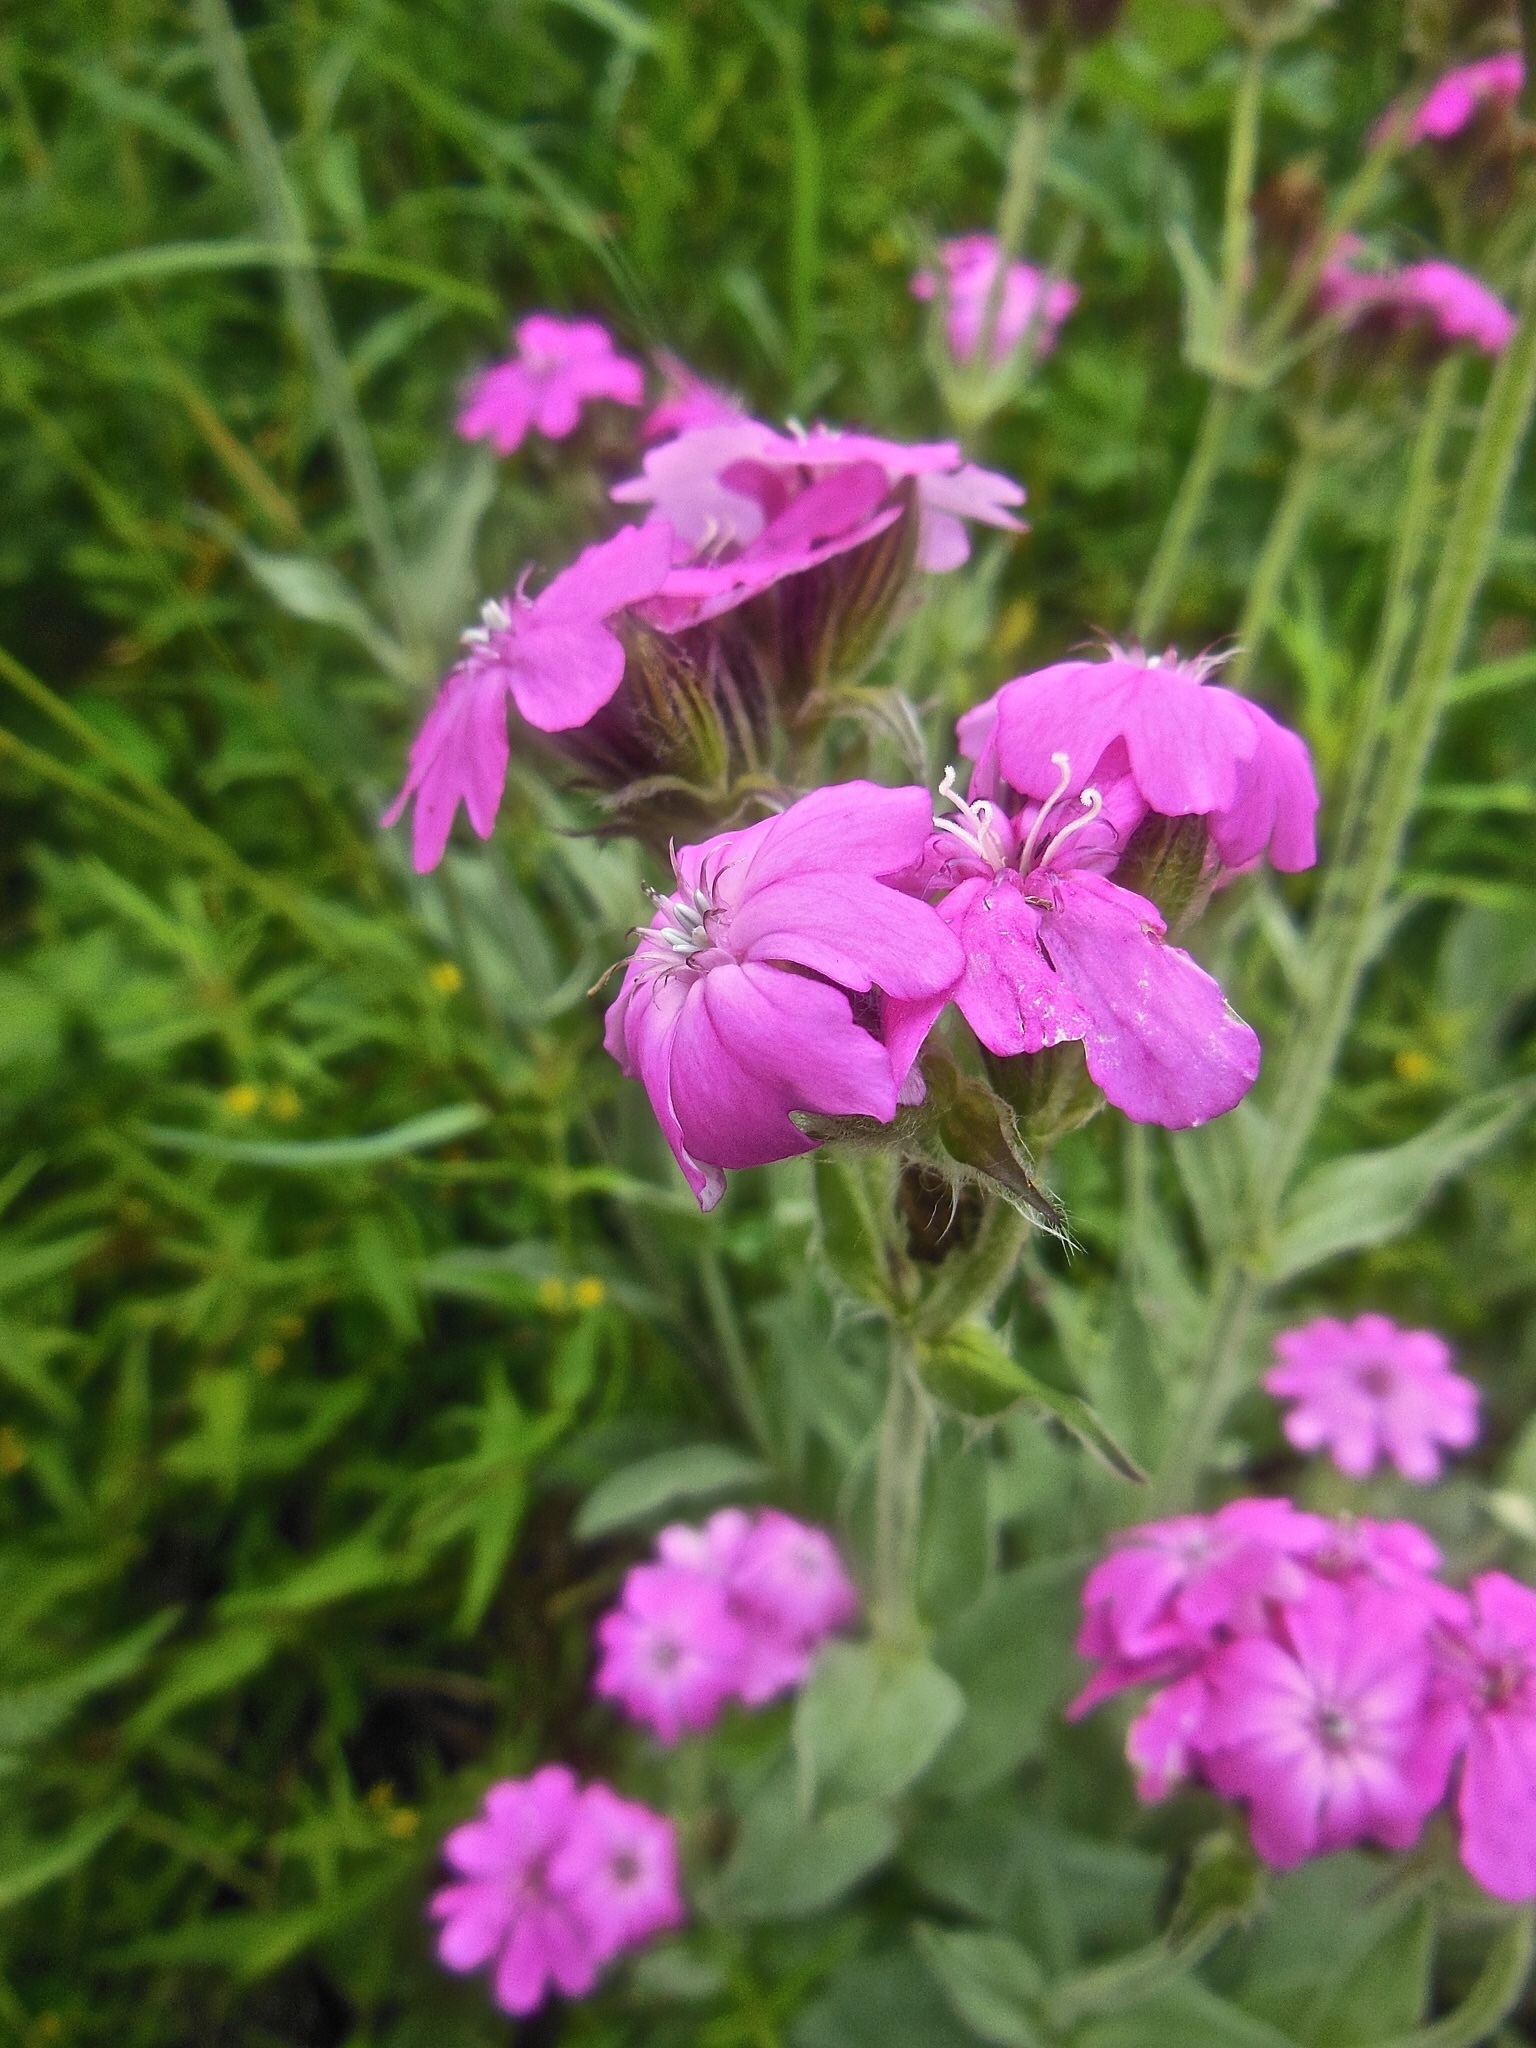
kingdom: Plantae
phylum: Tracheophyta
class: Magnoliopsida
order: Caryophyllales
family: Caryophyllaceae
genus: Silene
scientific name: Silene flos-jovis
